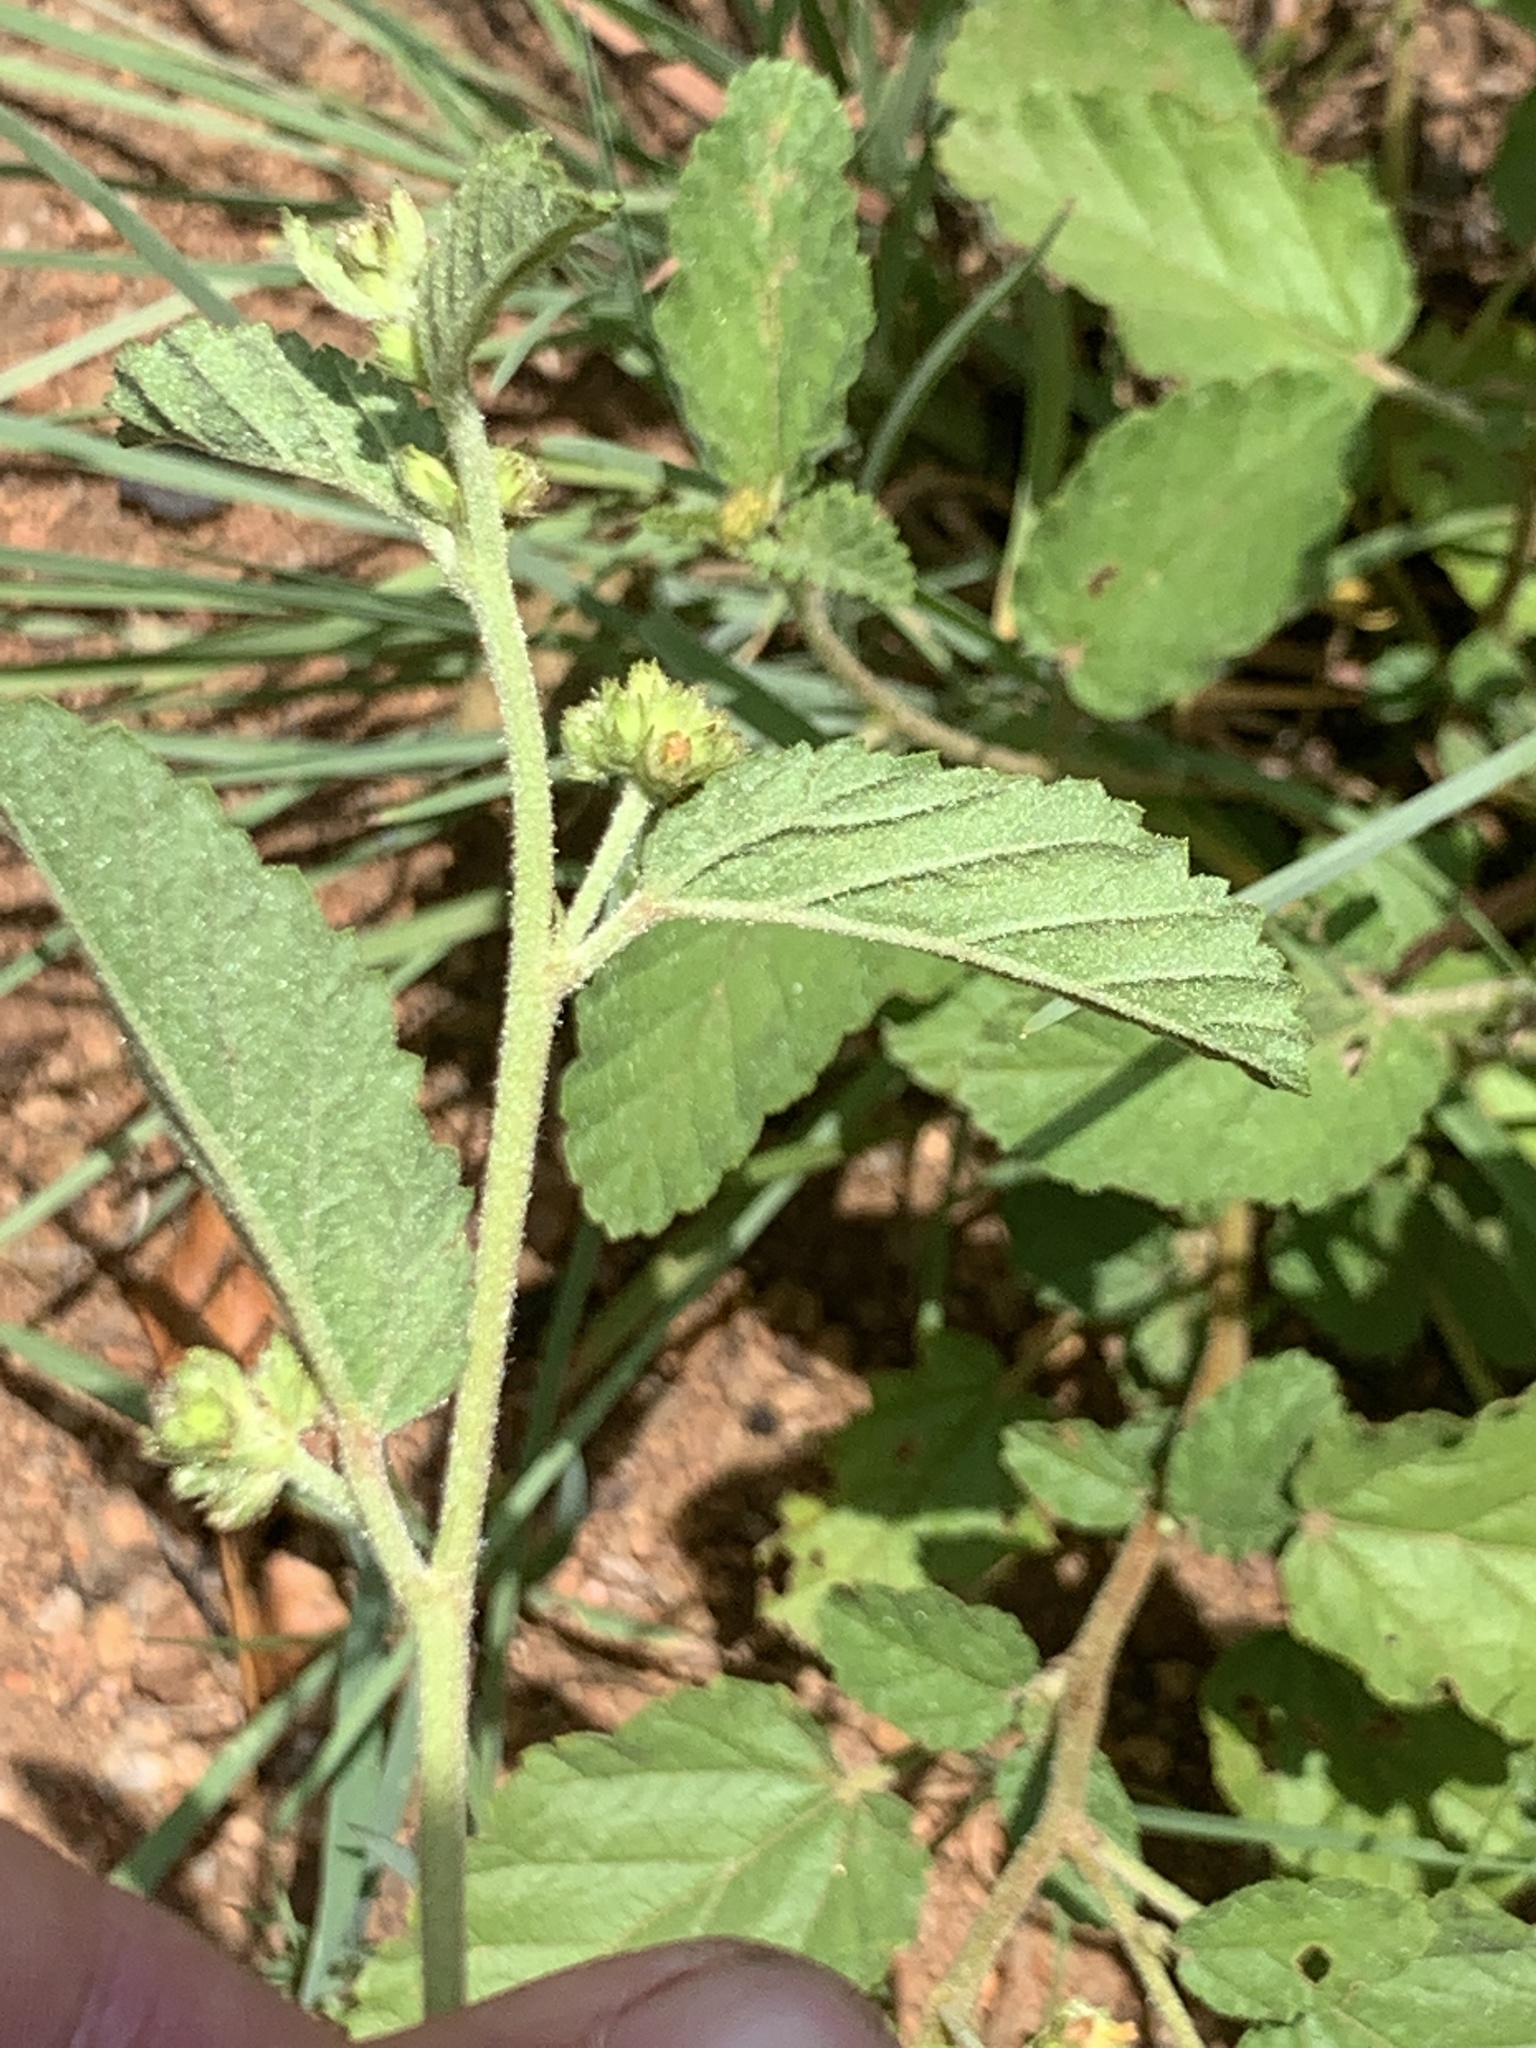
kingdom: Plantae
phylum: Tracheophyta
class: Magnoliopsida
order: Malvales
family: Malvaceae
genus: Waltheria
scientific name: Waltheria indica
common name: Leather-coat
